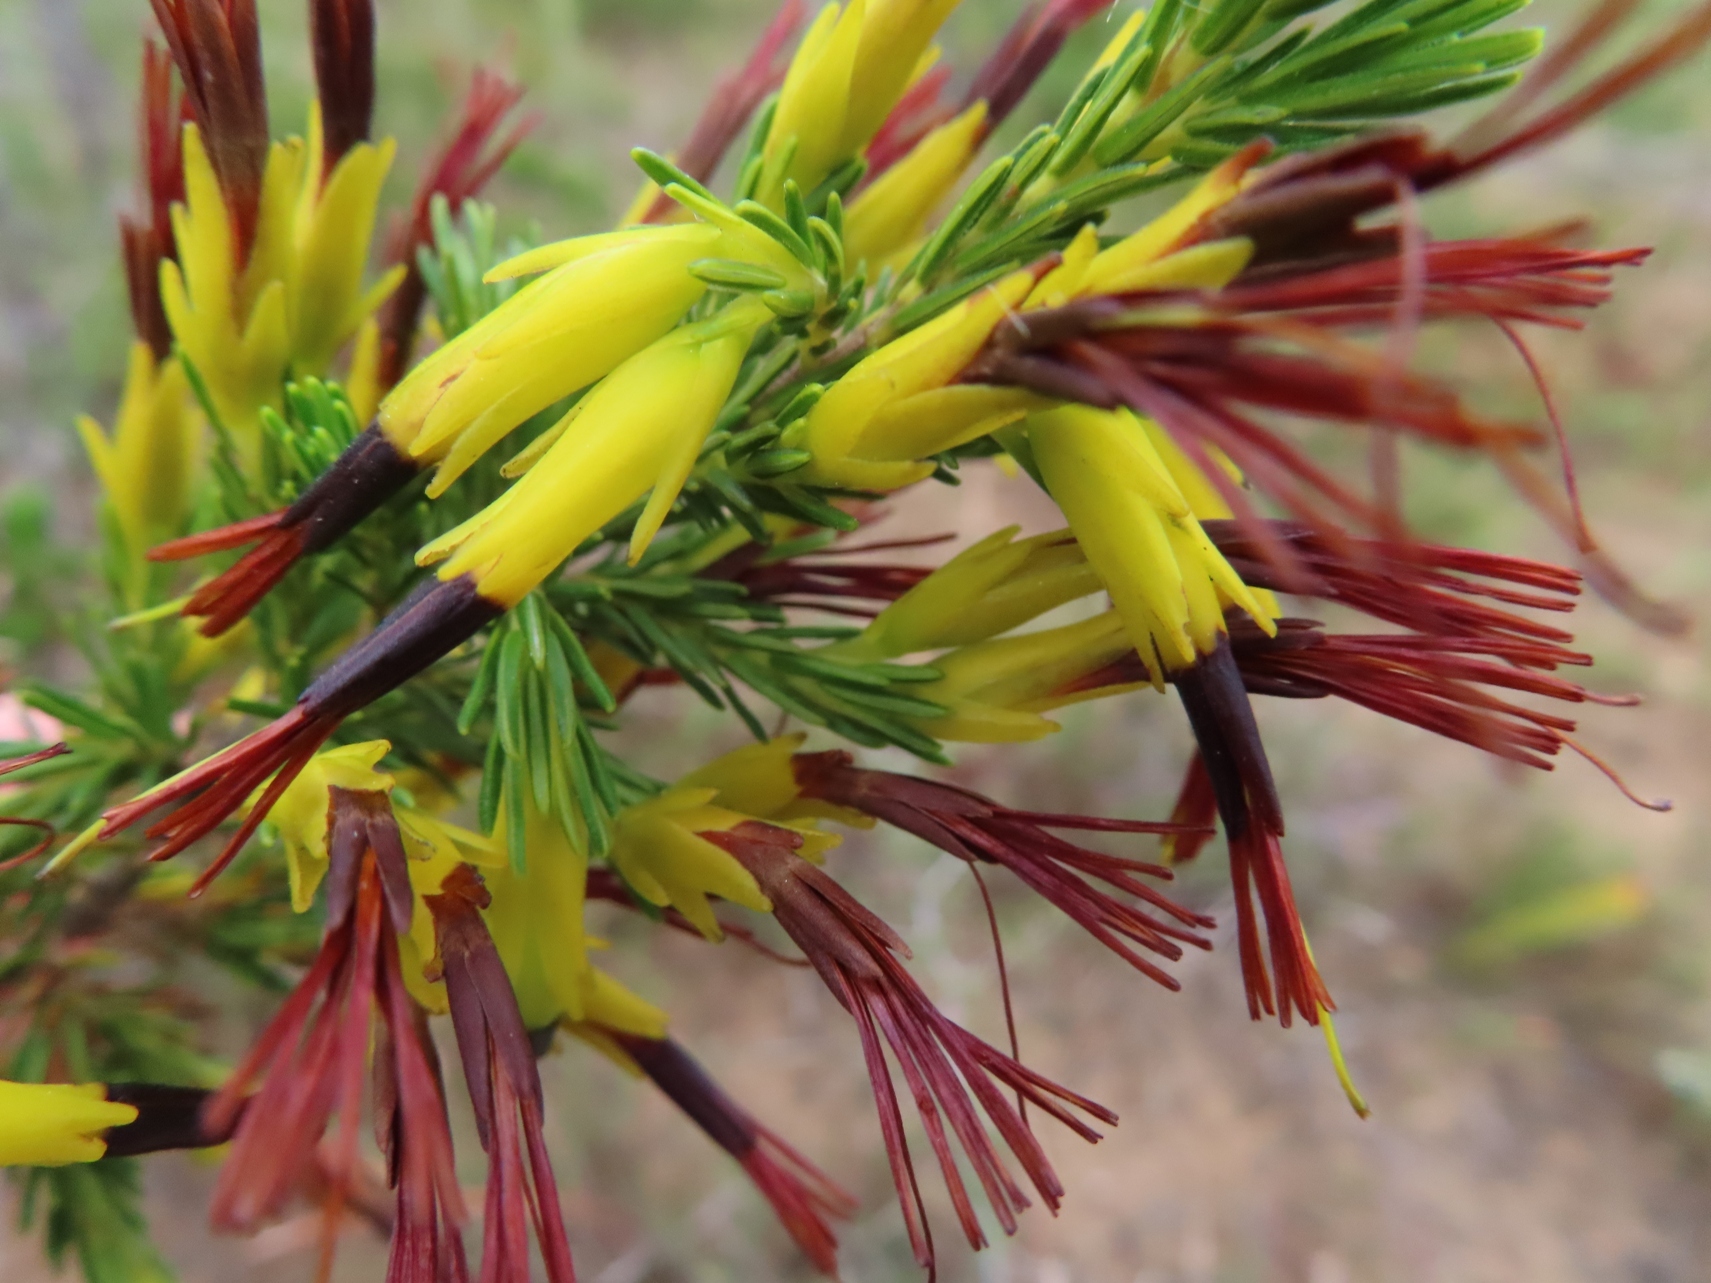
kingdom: Plantae
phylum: Tracheophyta
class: Magnoliopsida
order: Ericales
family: Ericaceae
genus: Erica
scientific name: Erica melastoma
